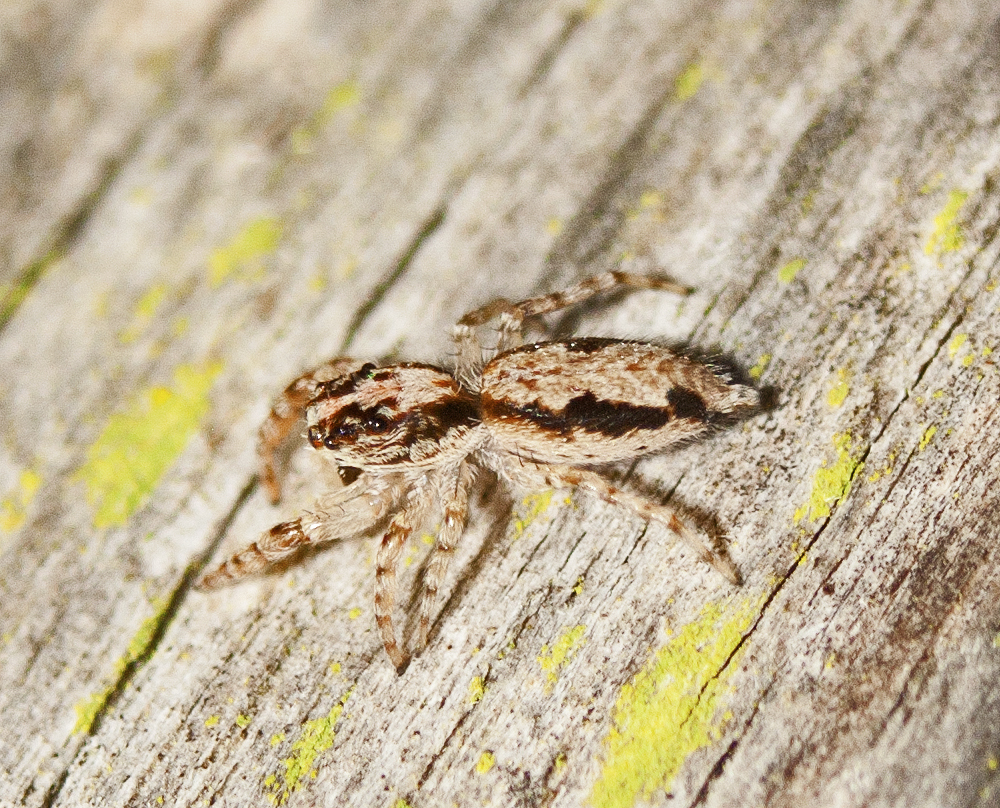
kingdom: Animalia
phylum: Arthropoda
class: Arachnida
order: Araneae
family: Salticidae
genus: Apricia
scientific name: Apricia bracteata
